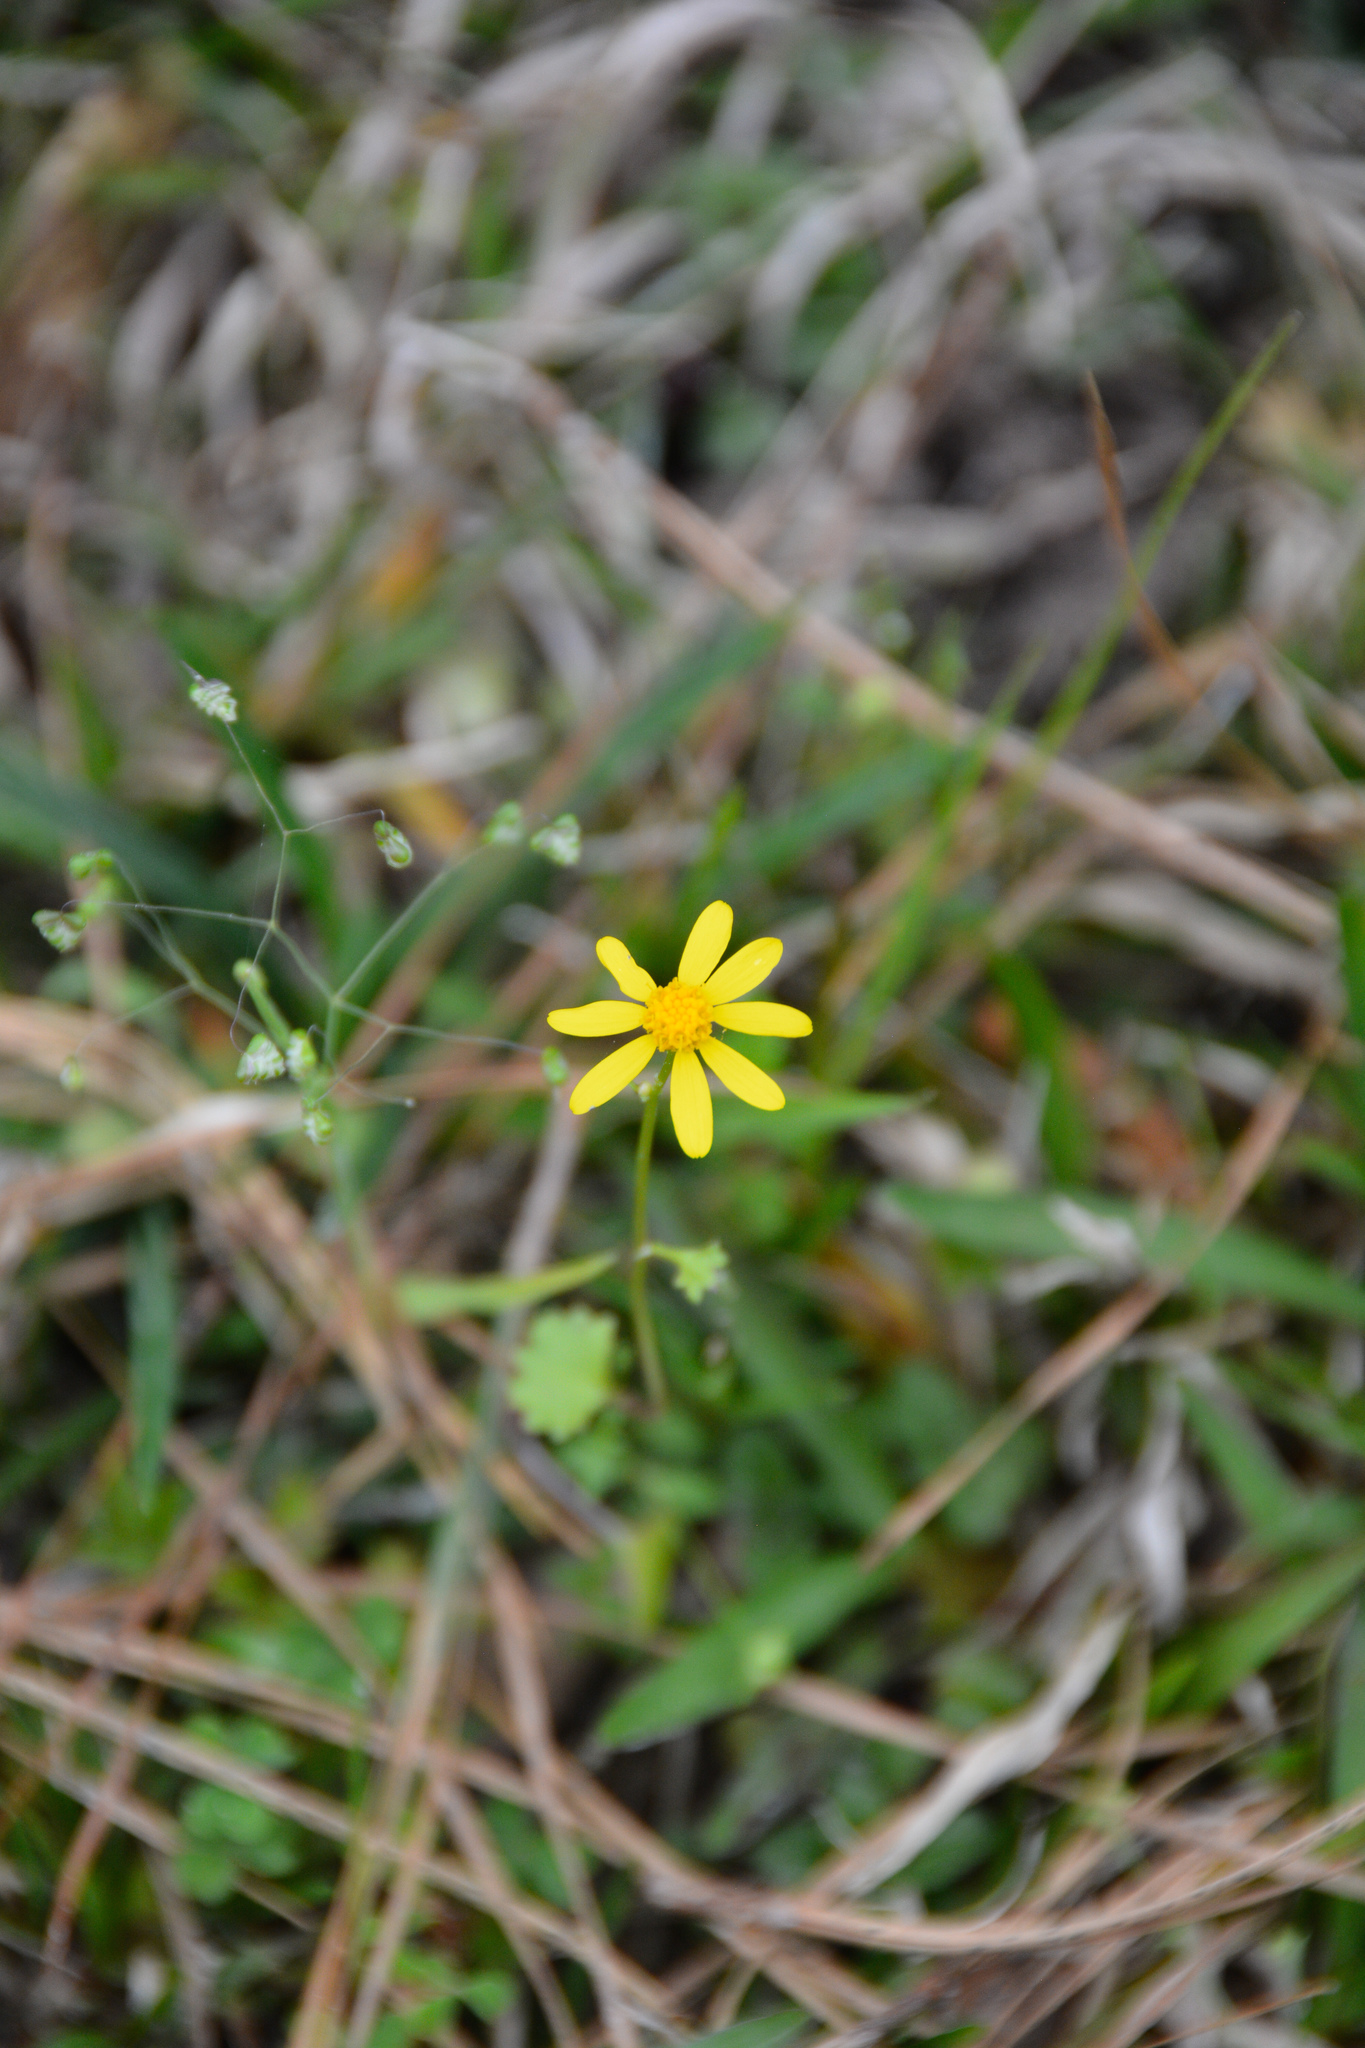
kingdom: Plantae
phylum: Tracheophyta
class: Magnoliopsida
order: Asterales
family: Asteraceae
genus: Packera
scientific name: Packera glabella
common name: Butterweed
